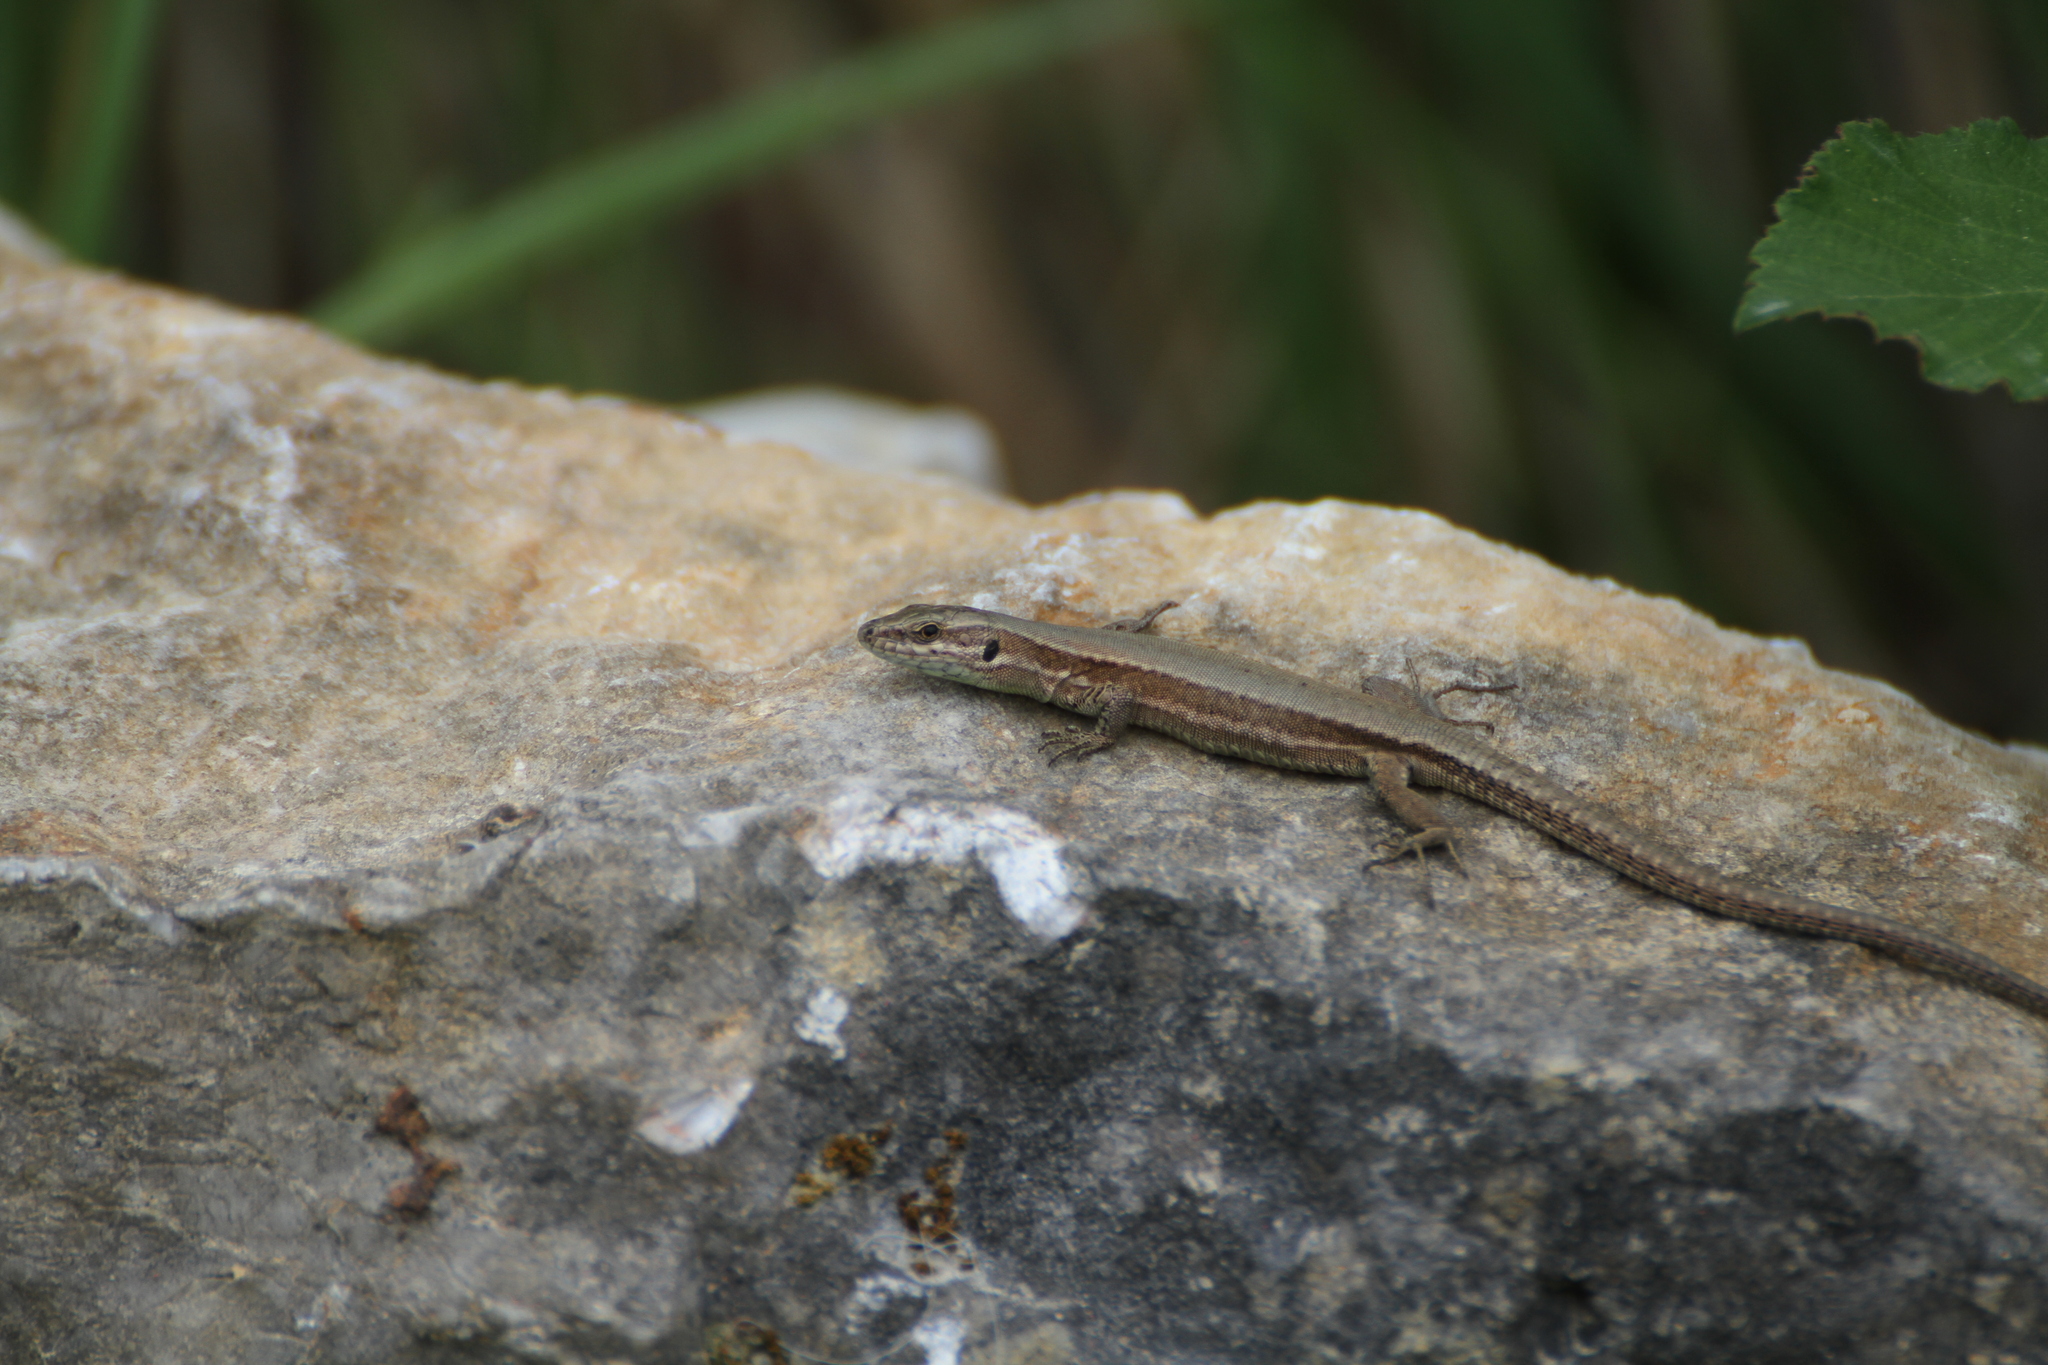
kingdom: Animalia
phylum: Chordata
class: Squamata
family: Lacertidae
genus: Podarcis
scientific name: Podarcis muralis
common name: Common wall lizard
